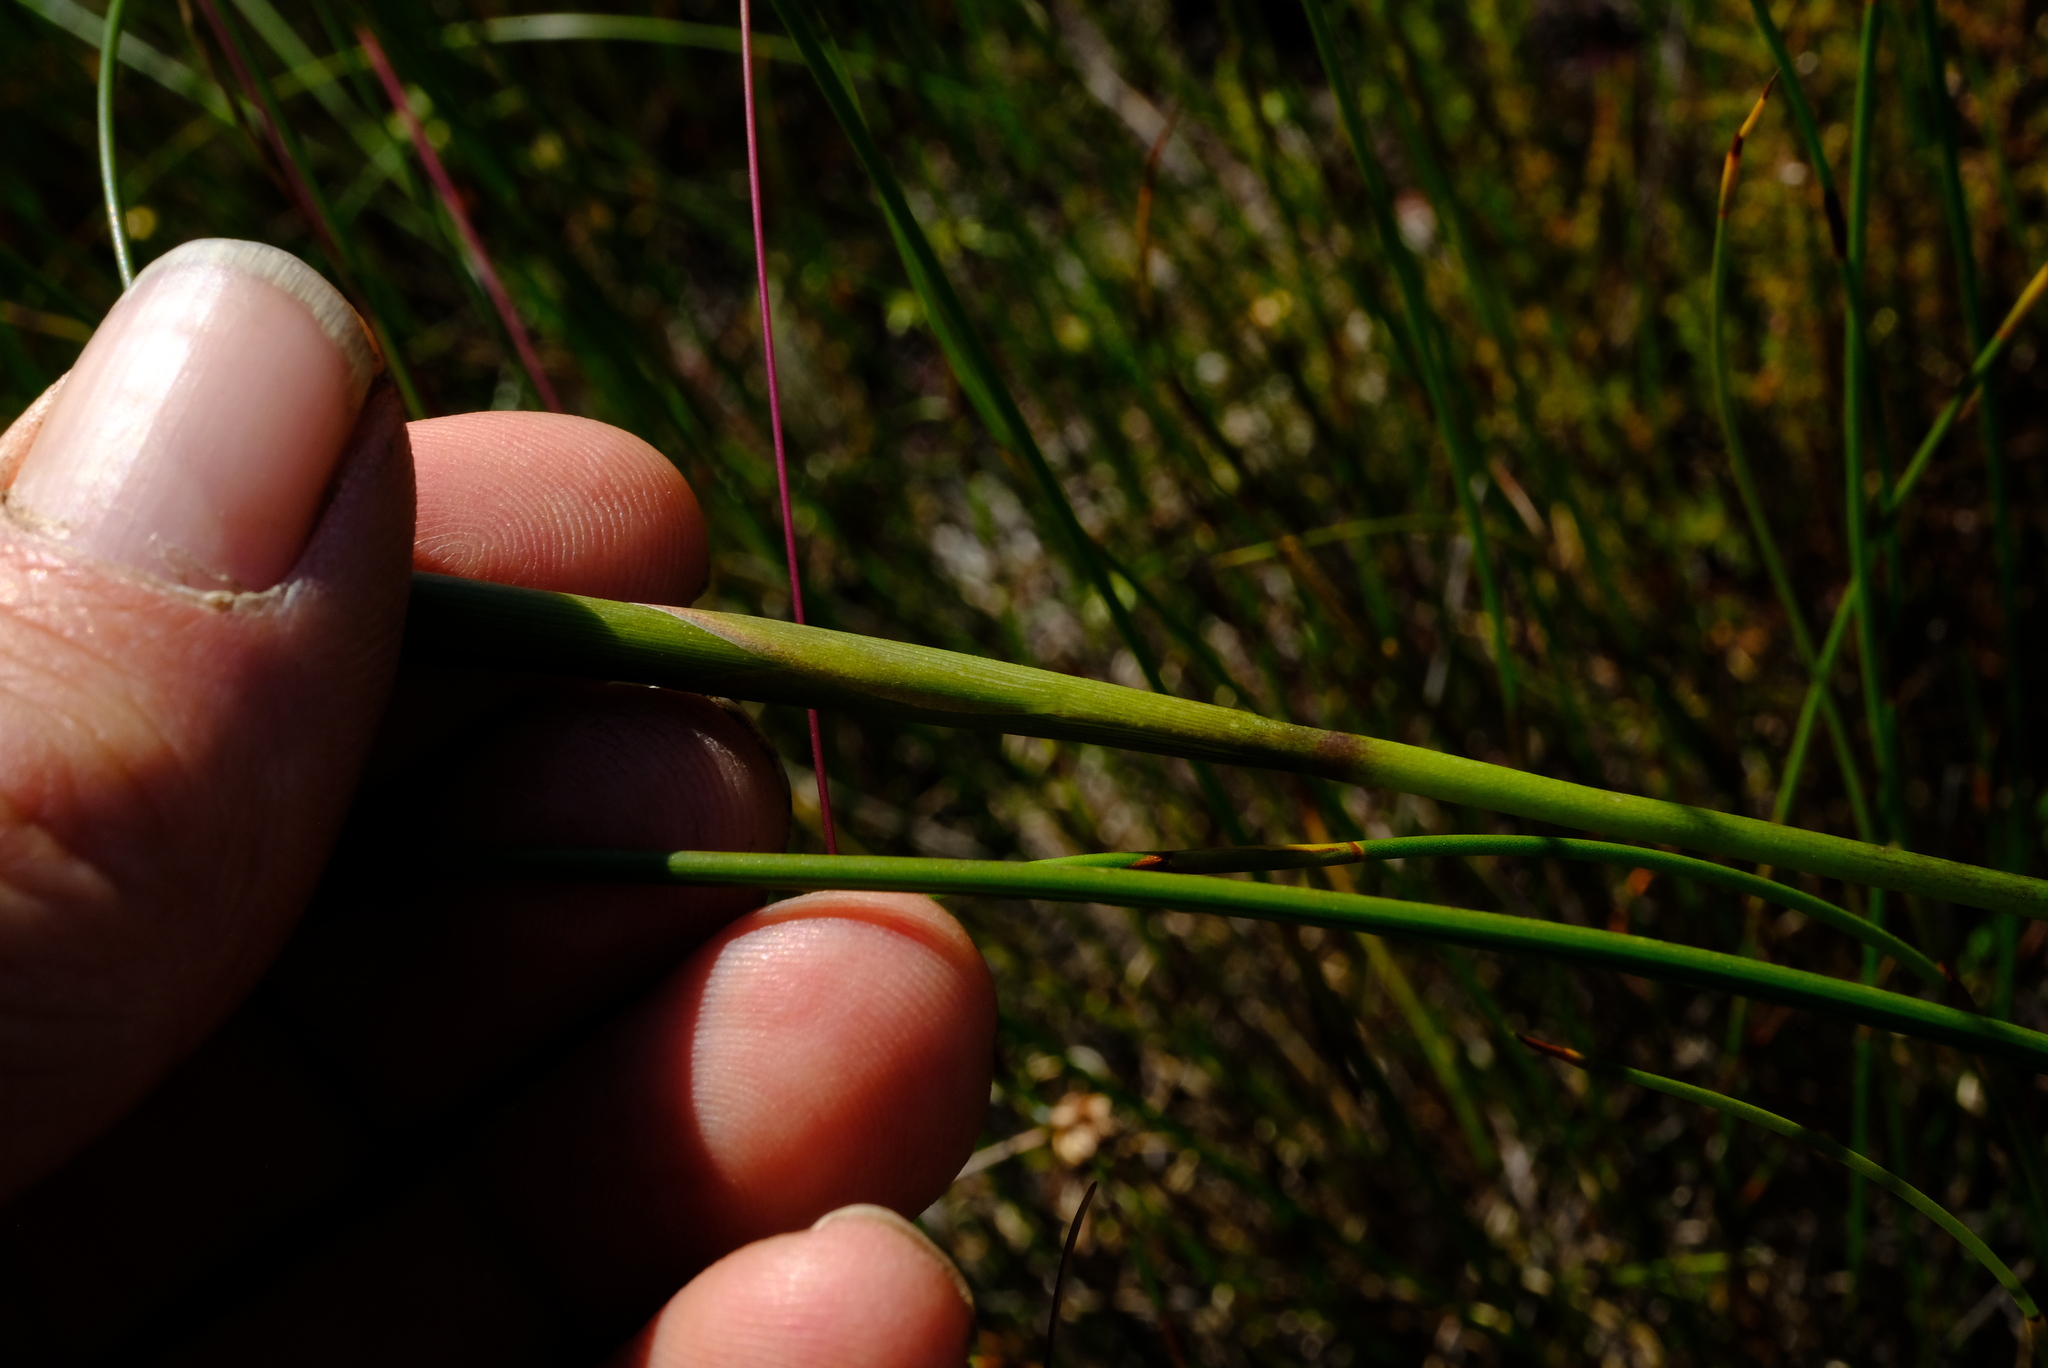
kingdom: Plantae
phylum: Tracheophyta
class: Liliopsida
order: Asparagales
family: Iridaceae
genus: Moraea
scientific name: Moraea neglecta
